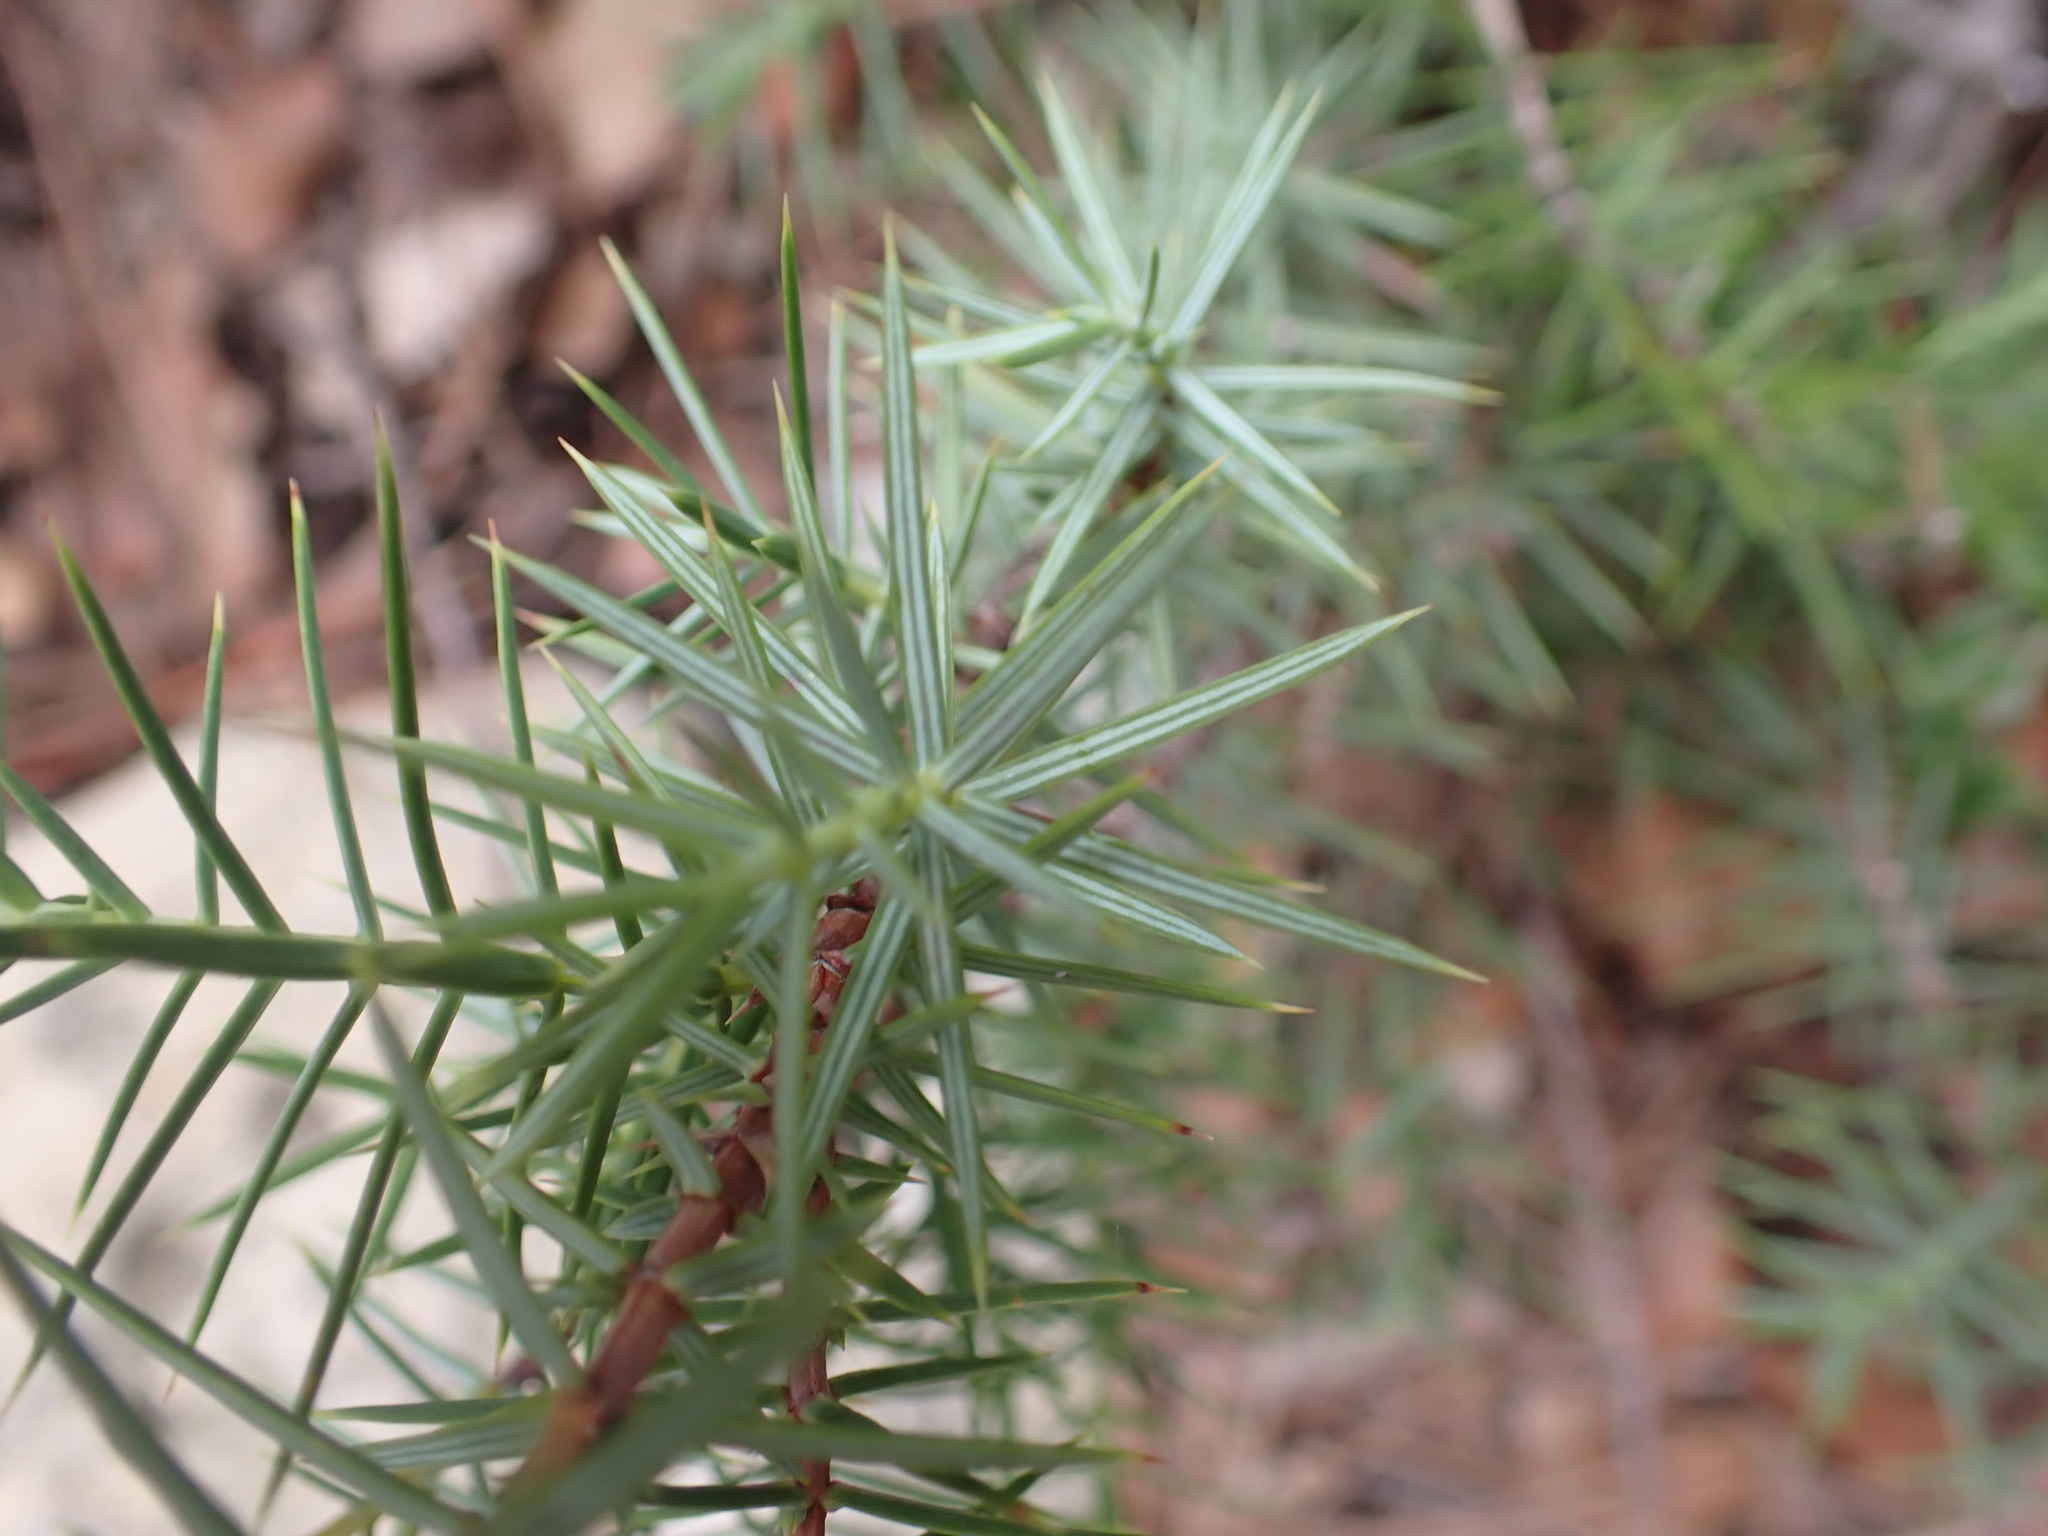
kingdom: Plantae
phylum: Tracheophyta
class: Pinopsida
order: Pinales
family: Cupressaceae
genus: Juniperus
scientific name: Juniperus oxycedrus
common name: Prickly juniper
